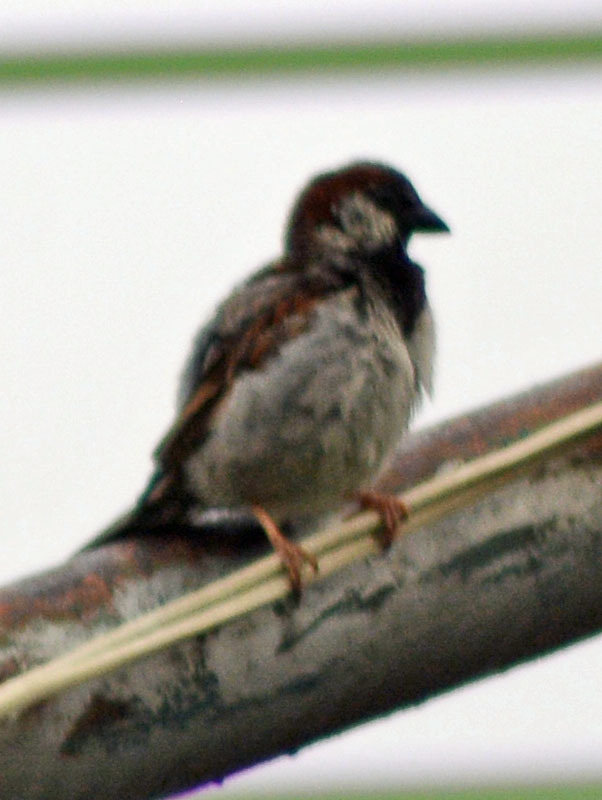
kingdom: Animalia
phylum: Chordata
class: Aves
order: Passeriformes
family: Passeridae
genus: Passer
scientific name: Passer domesticus
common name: House sparrow
